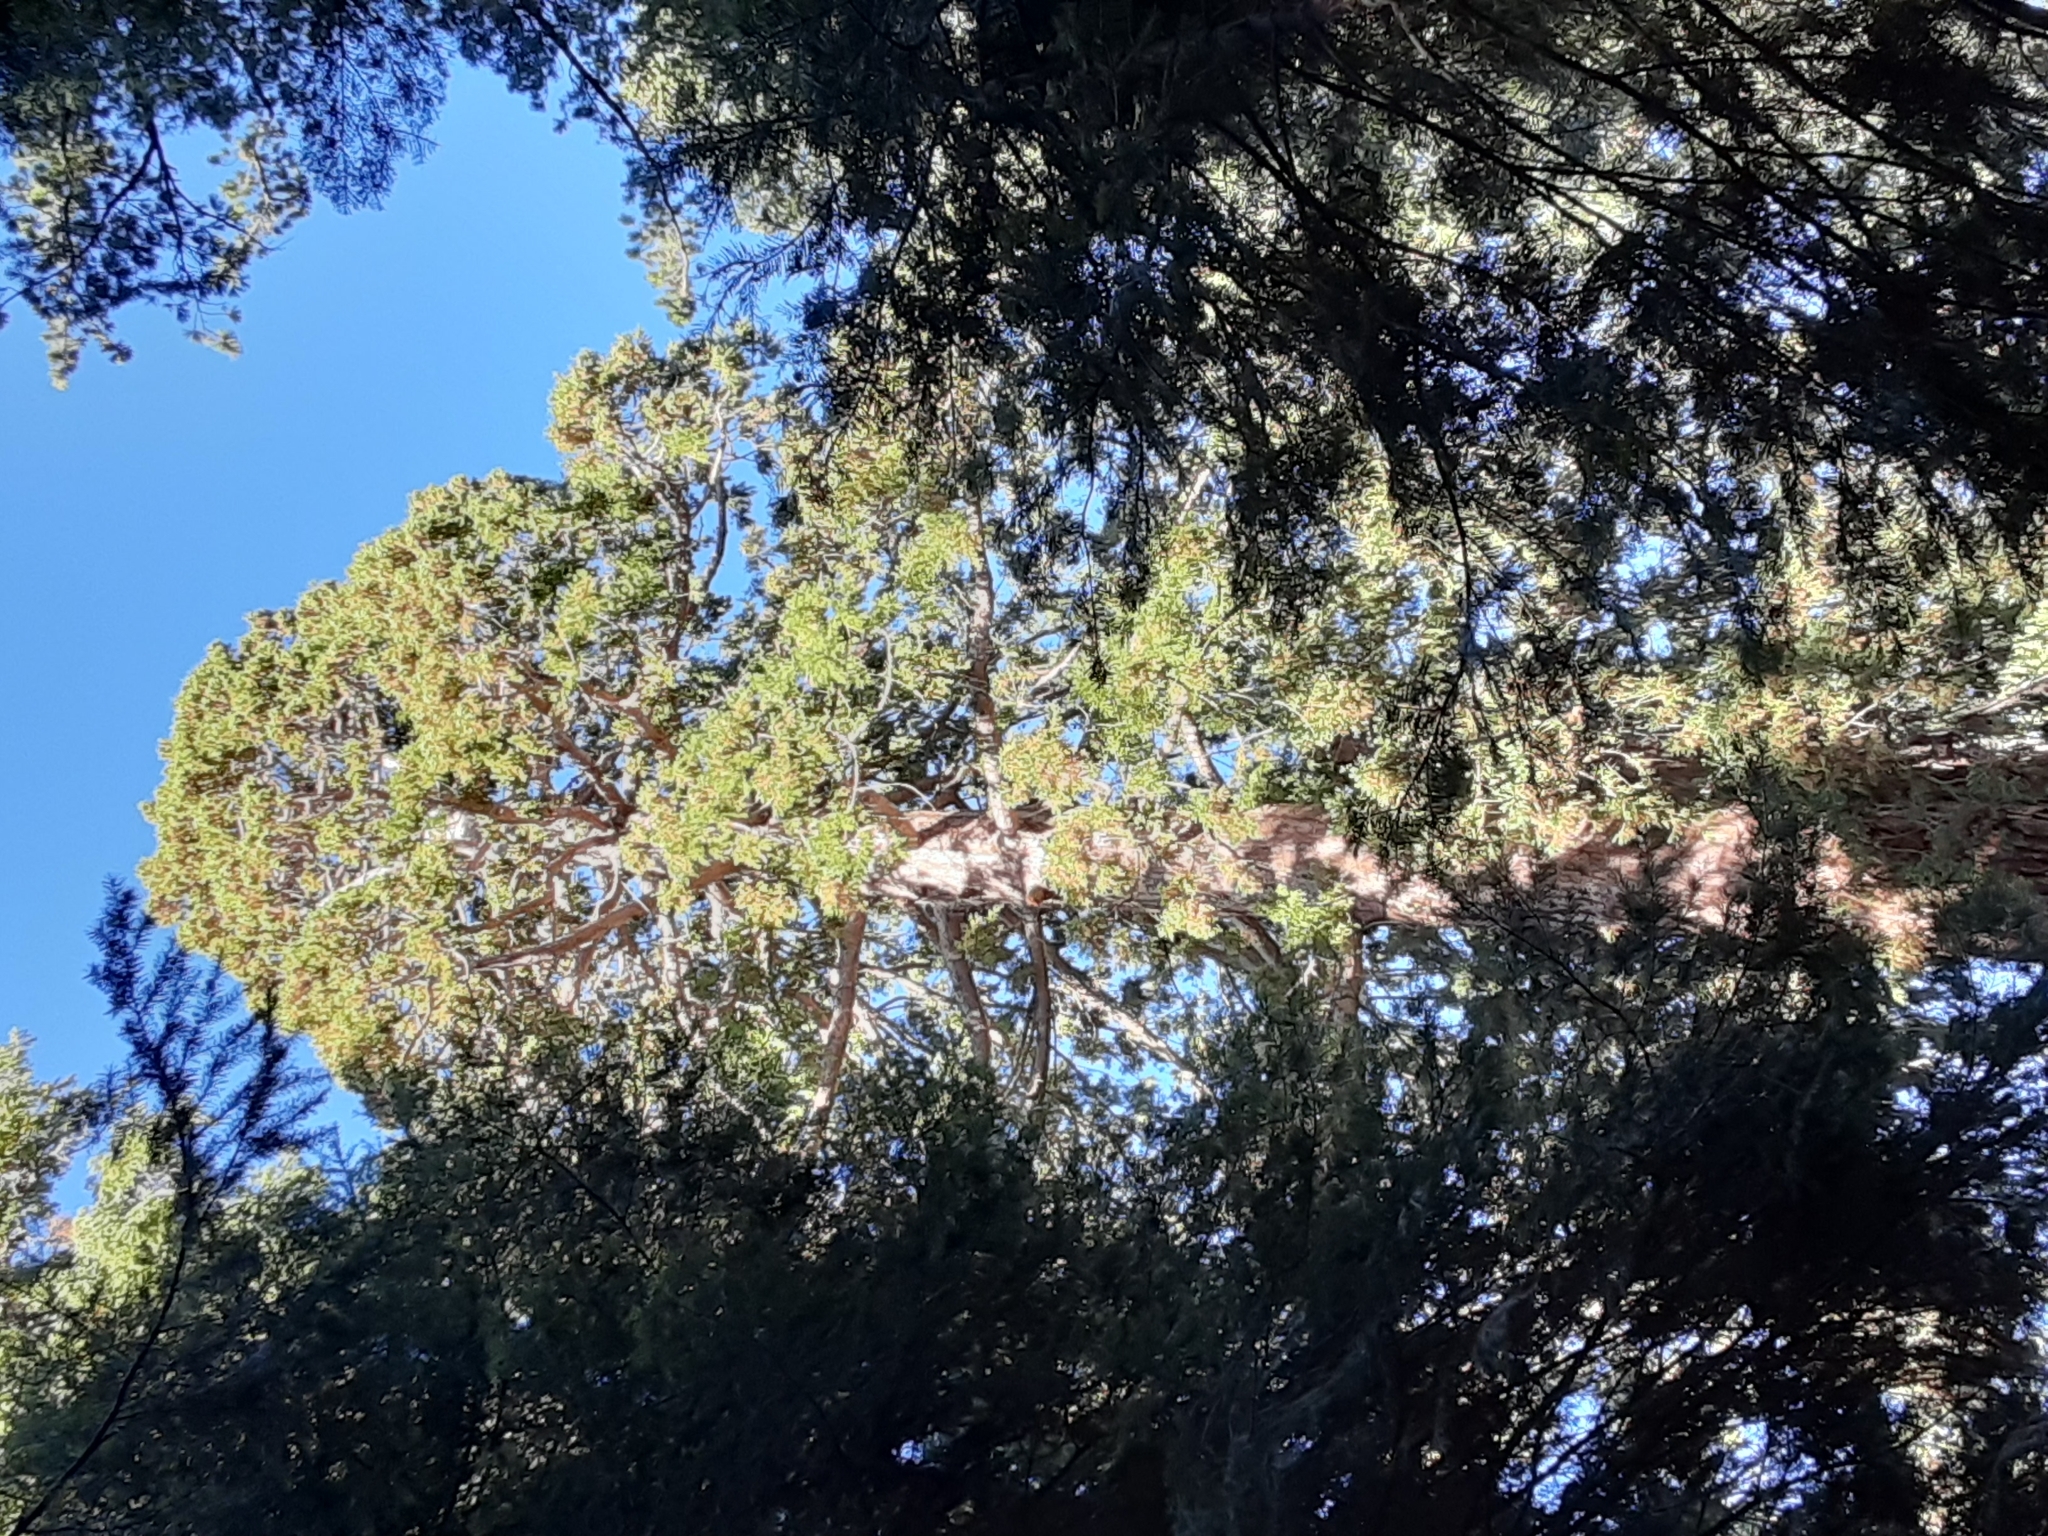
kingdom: Plantae
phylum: Tracheophyta
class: Pinopsida
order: Pinales
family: Cupressaceae
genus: Sequoiadendron
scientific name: Sequoiadendron giganteum
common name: Wellingtonia
